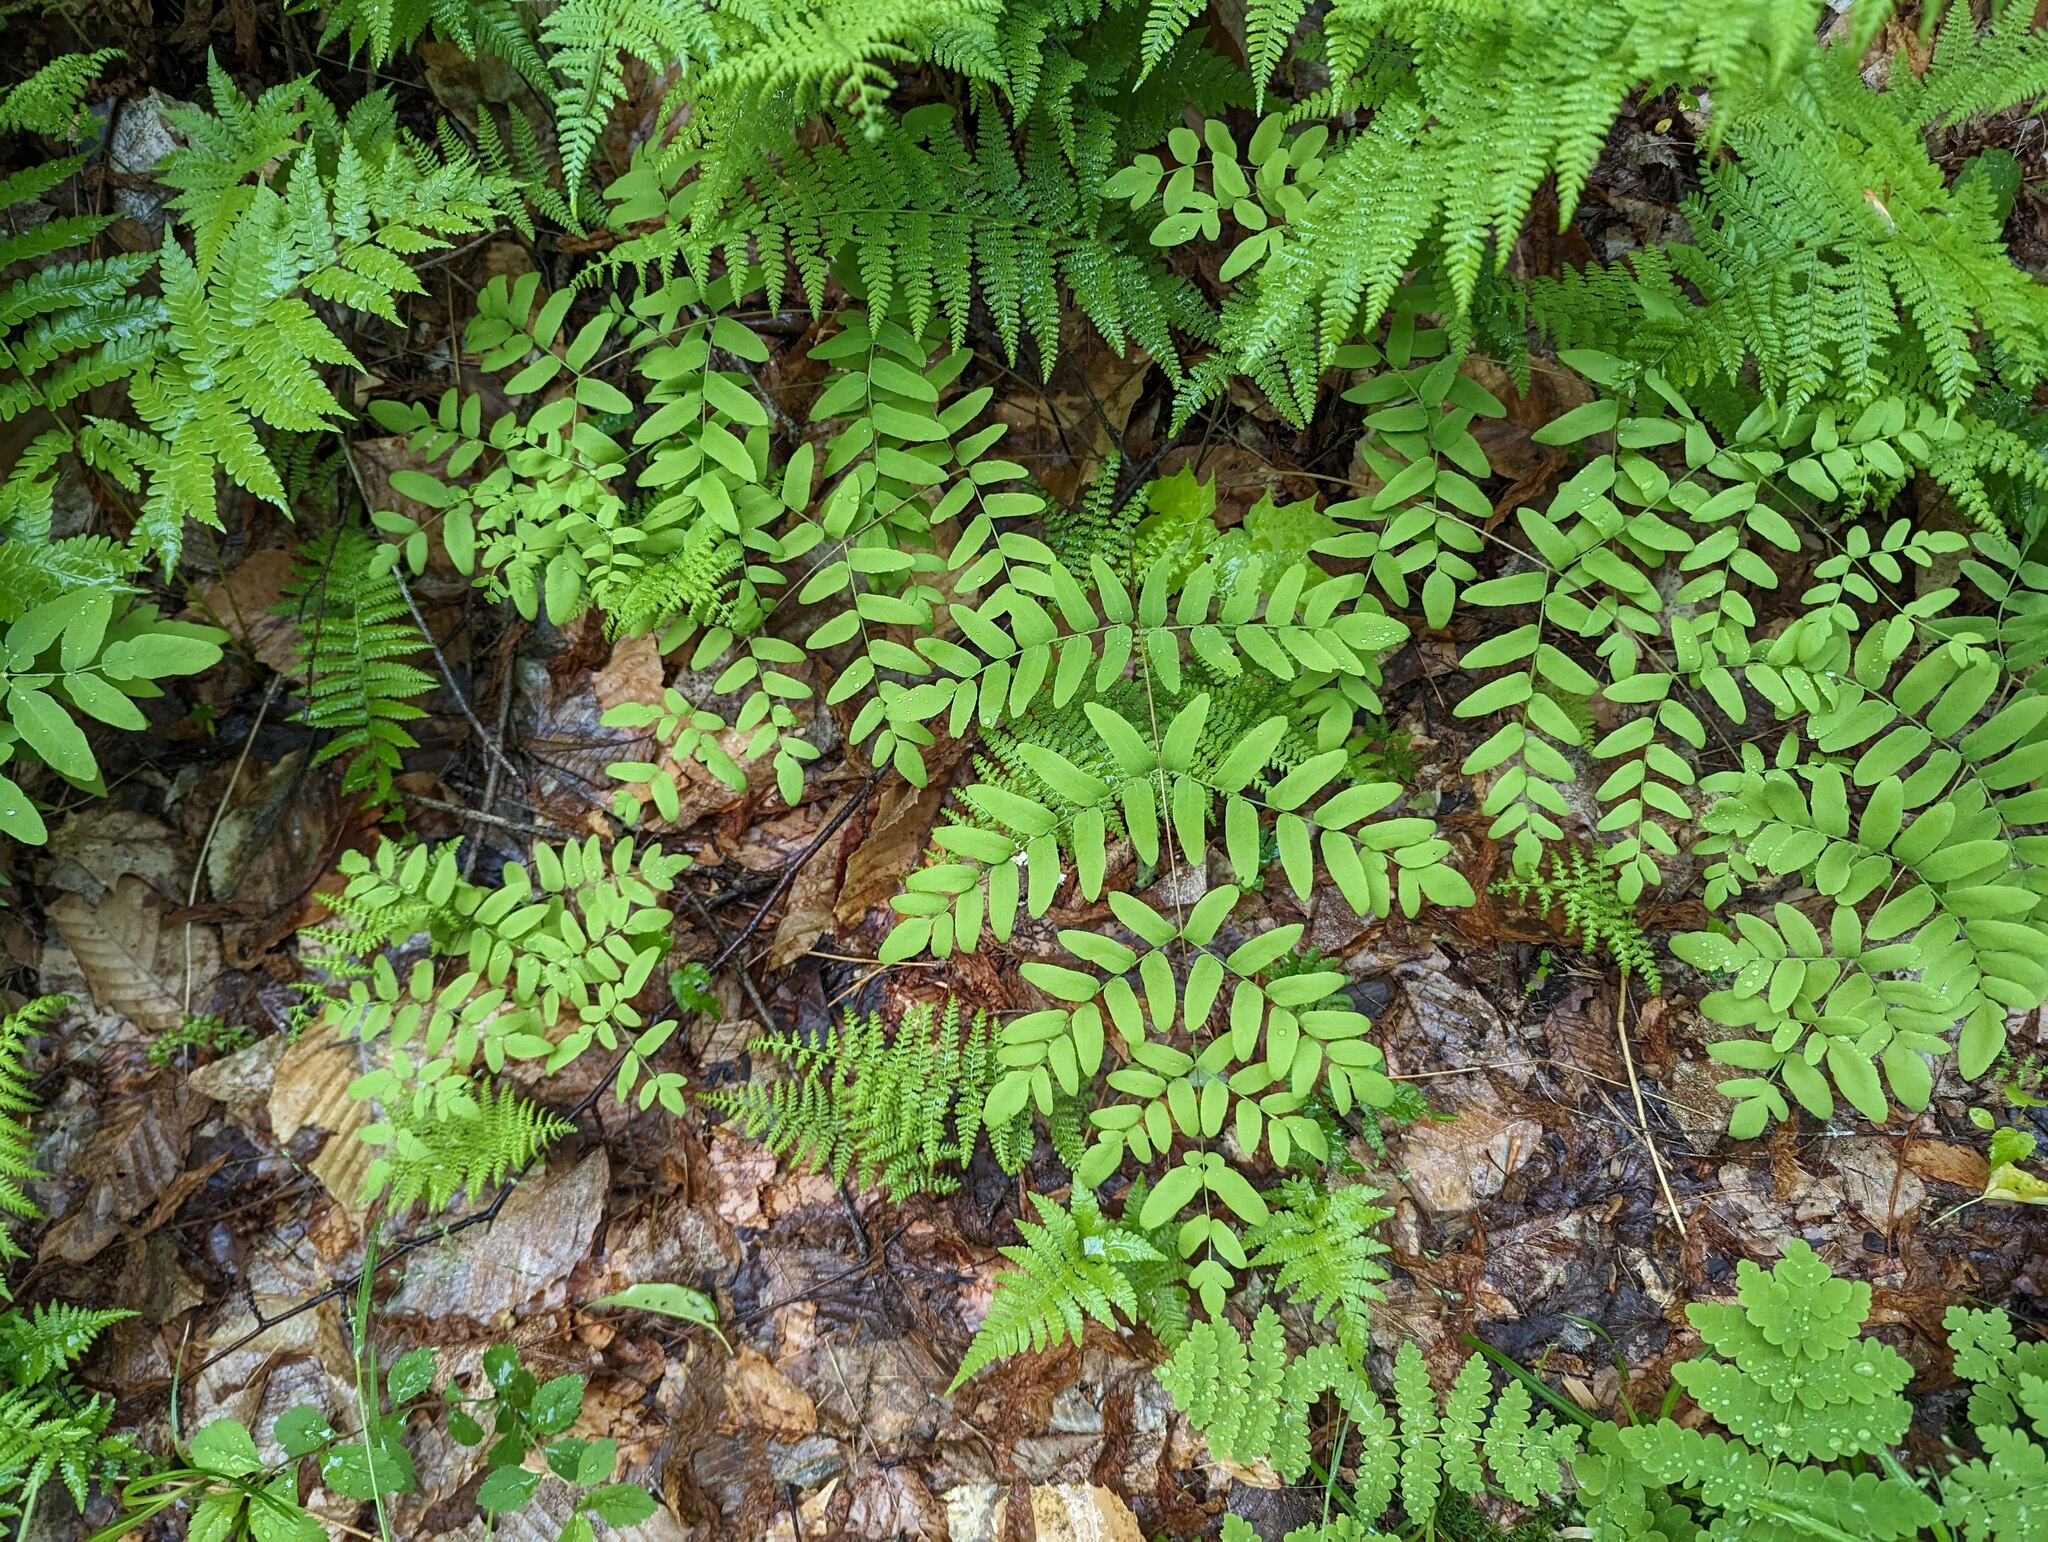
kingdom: Plantae
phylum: Tracheophyta
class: Polypodiopsida
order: Osmundales
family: Osmundaceae
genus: Osmunda
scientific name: Osmunda spectabilis
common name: American royal fern
